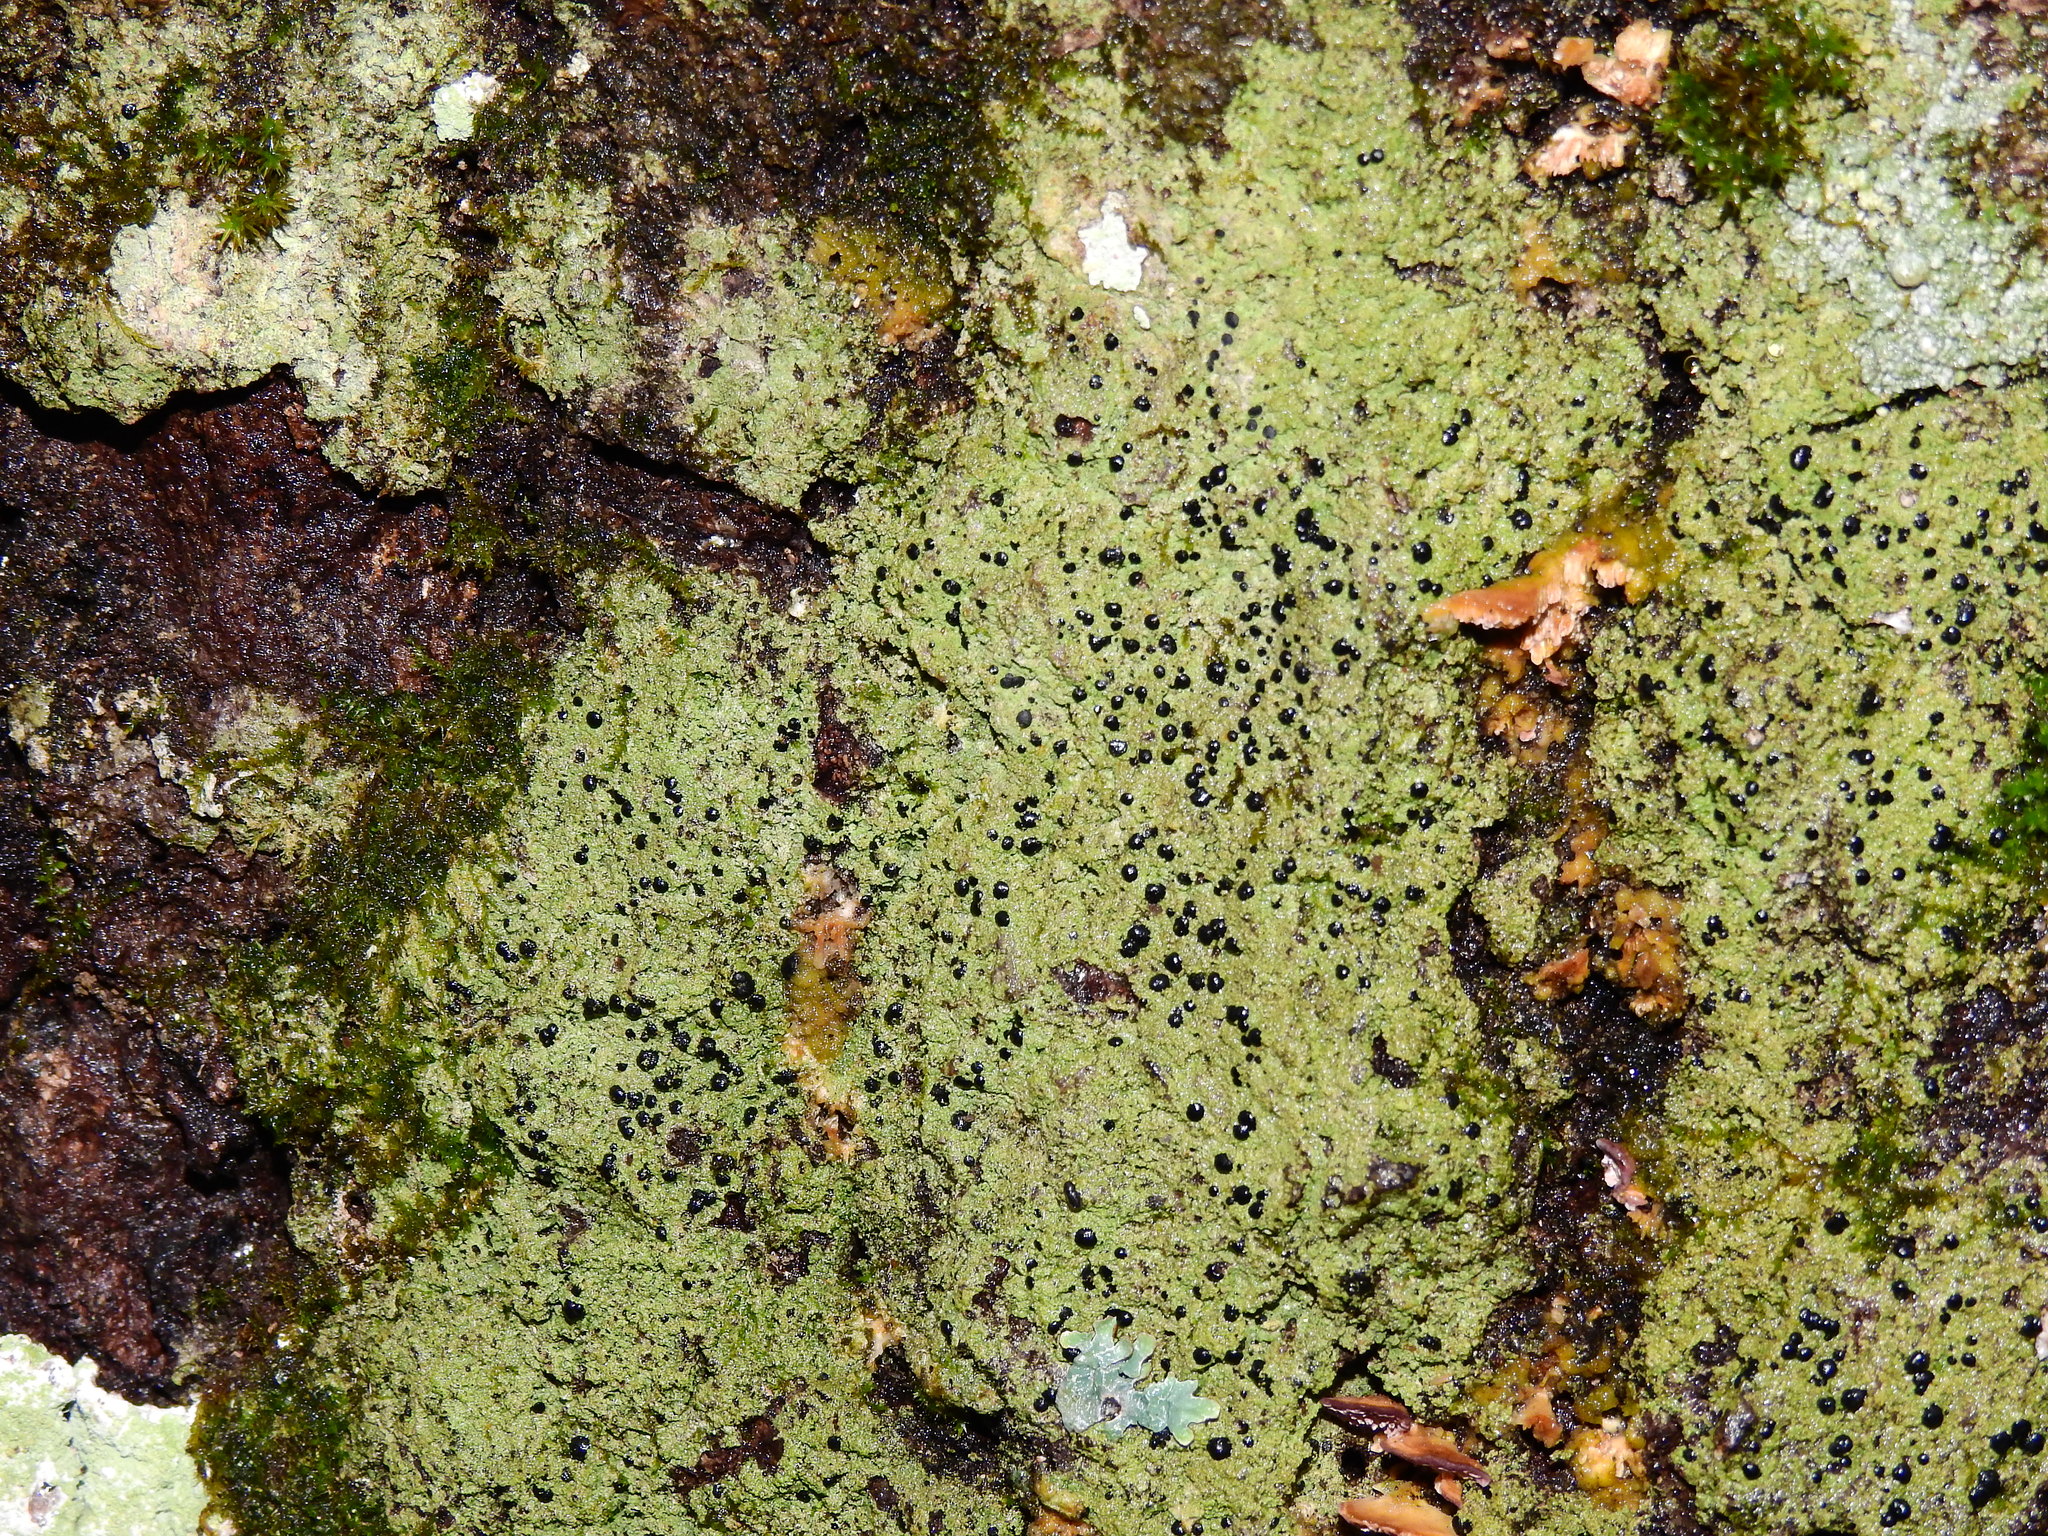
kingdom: Fungi
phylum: Ascomycota
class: Lecanoromycetes
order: Lecanorales
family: Ramalinaceae
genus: Bacidia
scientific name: Bacidia schweinitzii
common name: Surprise lichen
